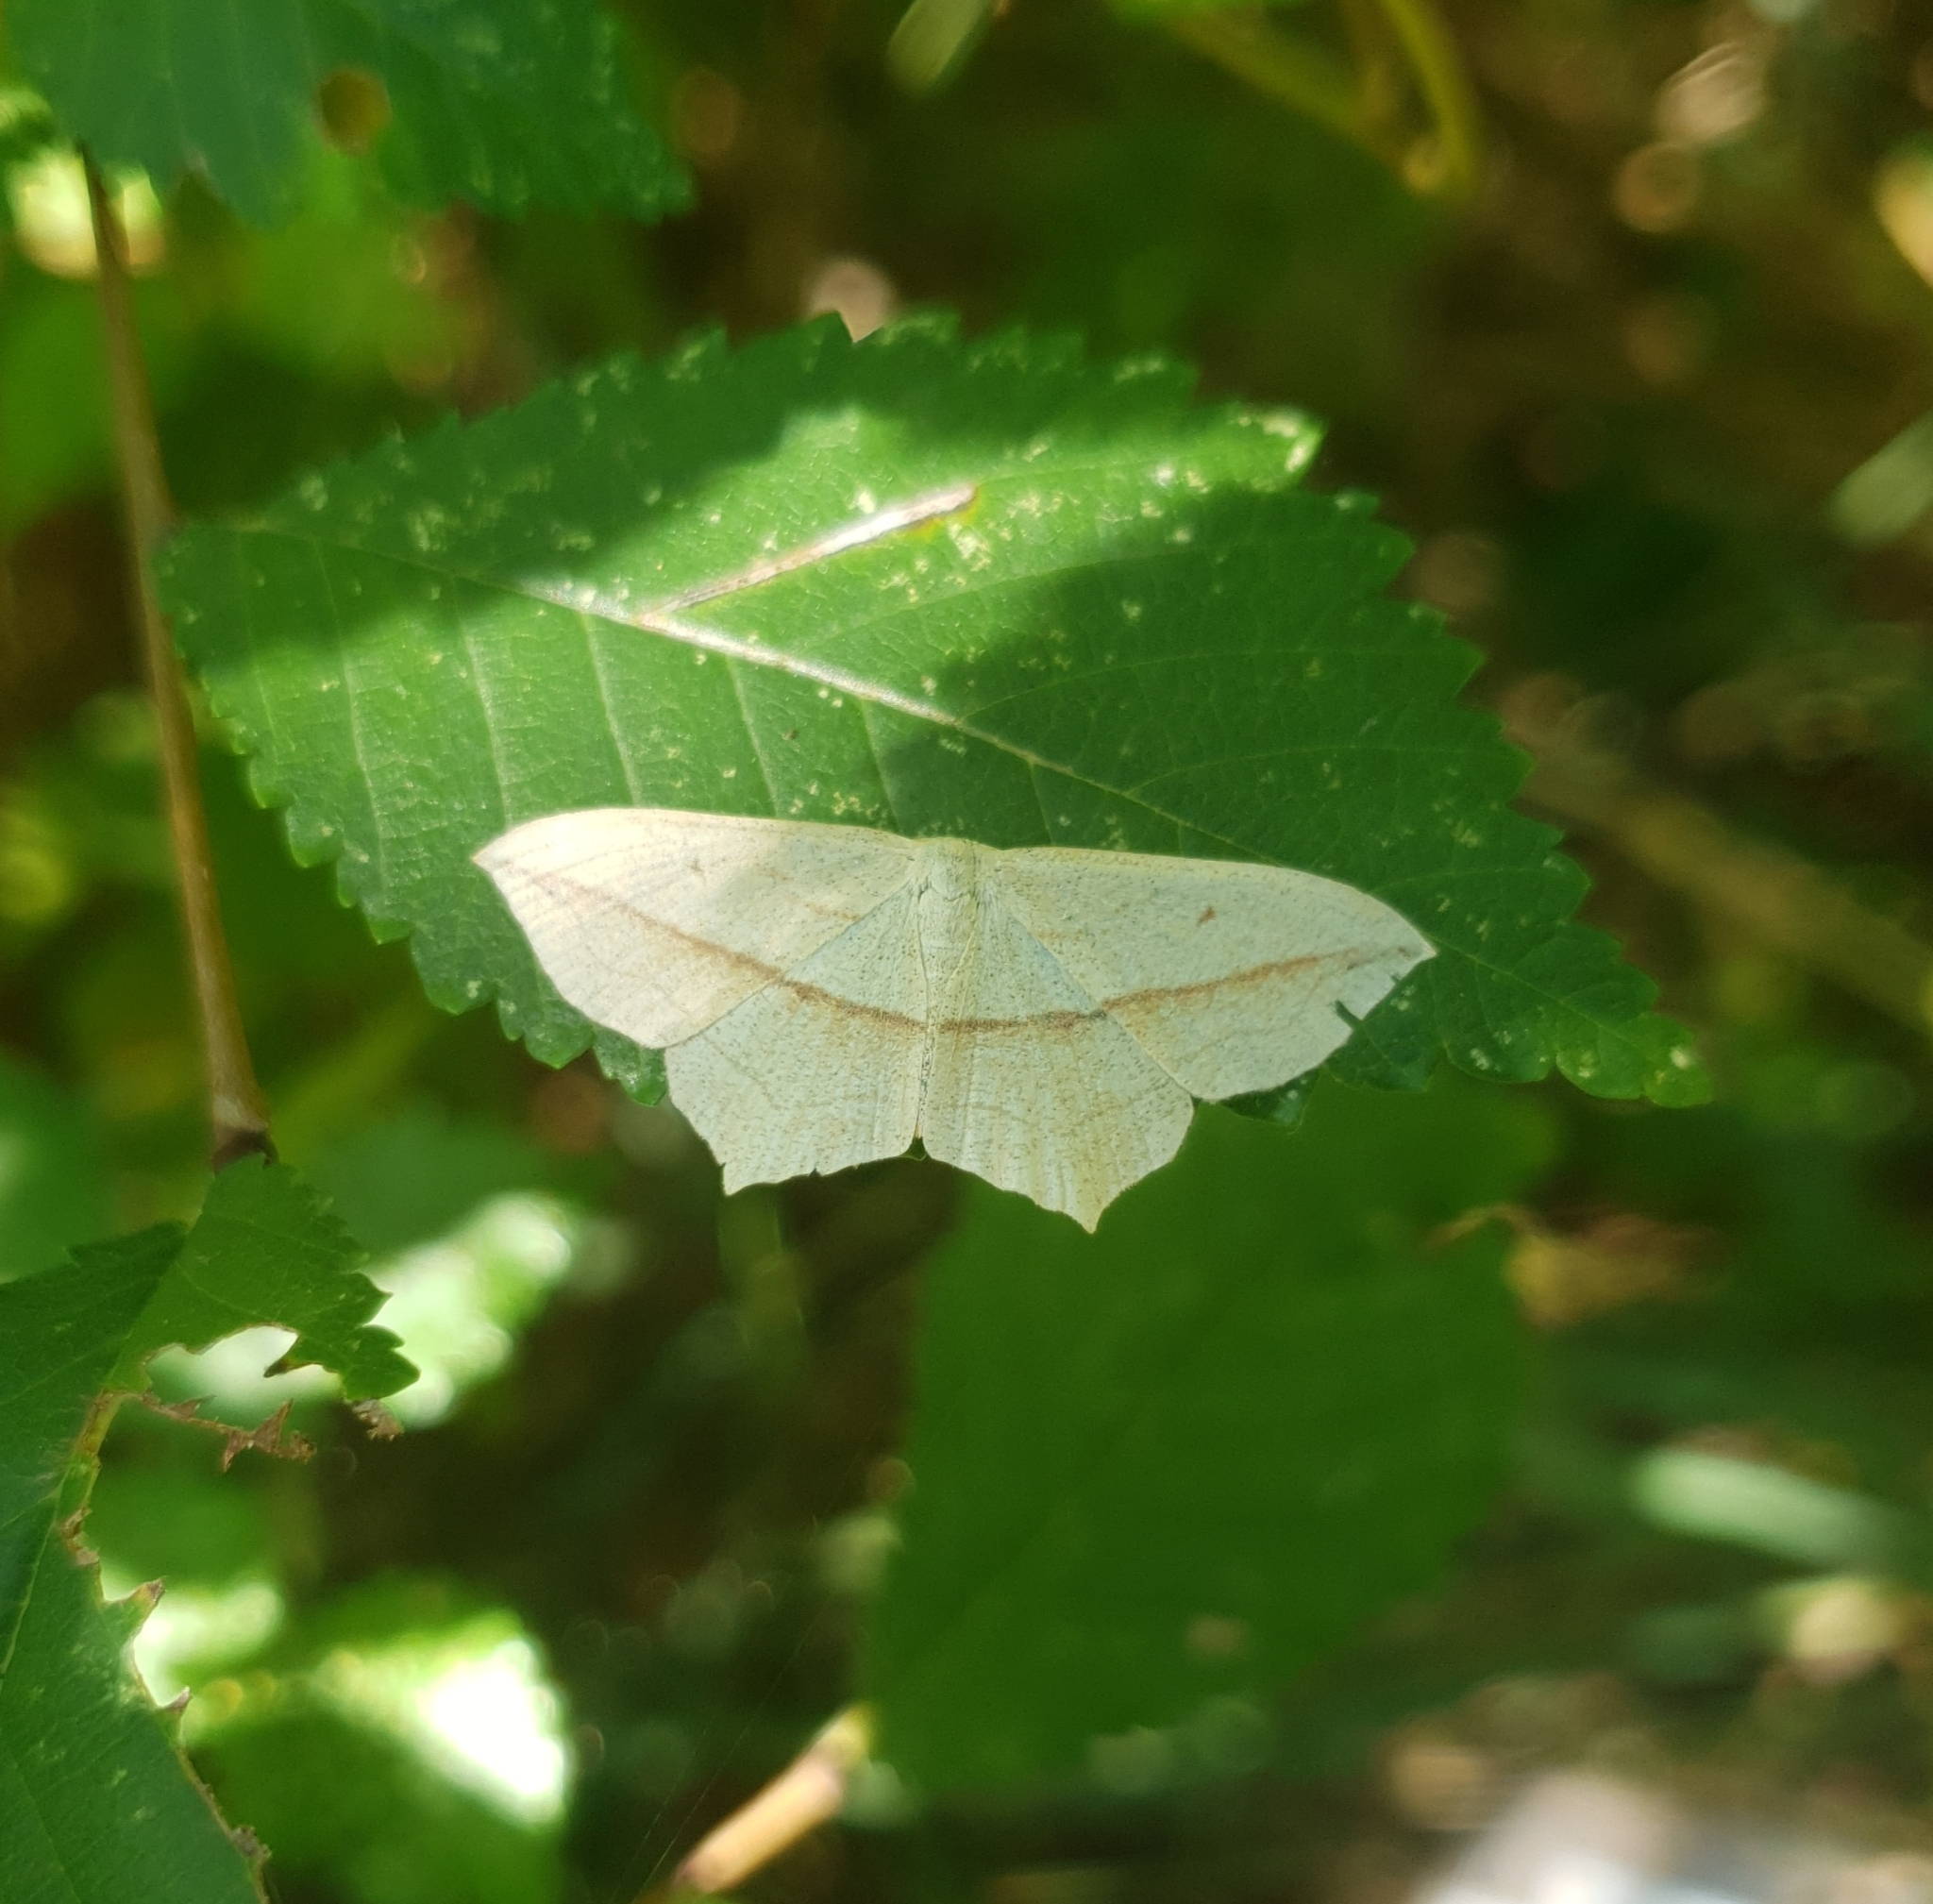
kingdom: Animalia
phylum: Arthropoda
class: Insecta
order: Lepidoptera
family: Geometridae
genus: Timandra
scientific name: Timandra comae
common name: Blood-vein
